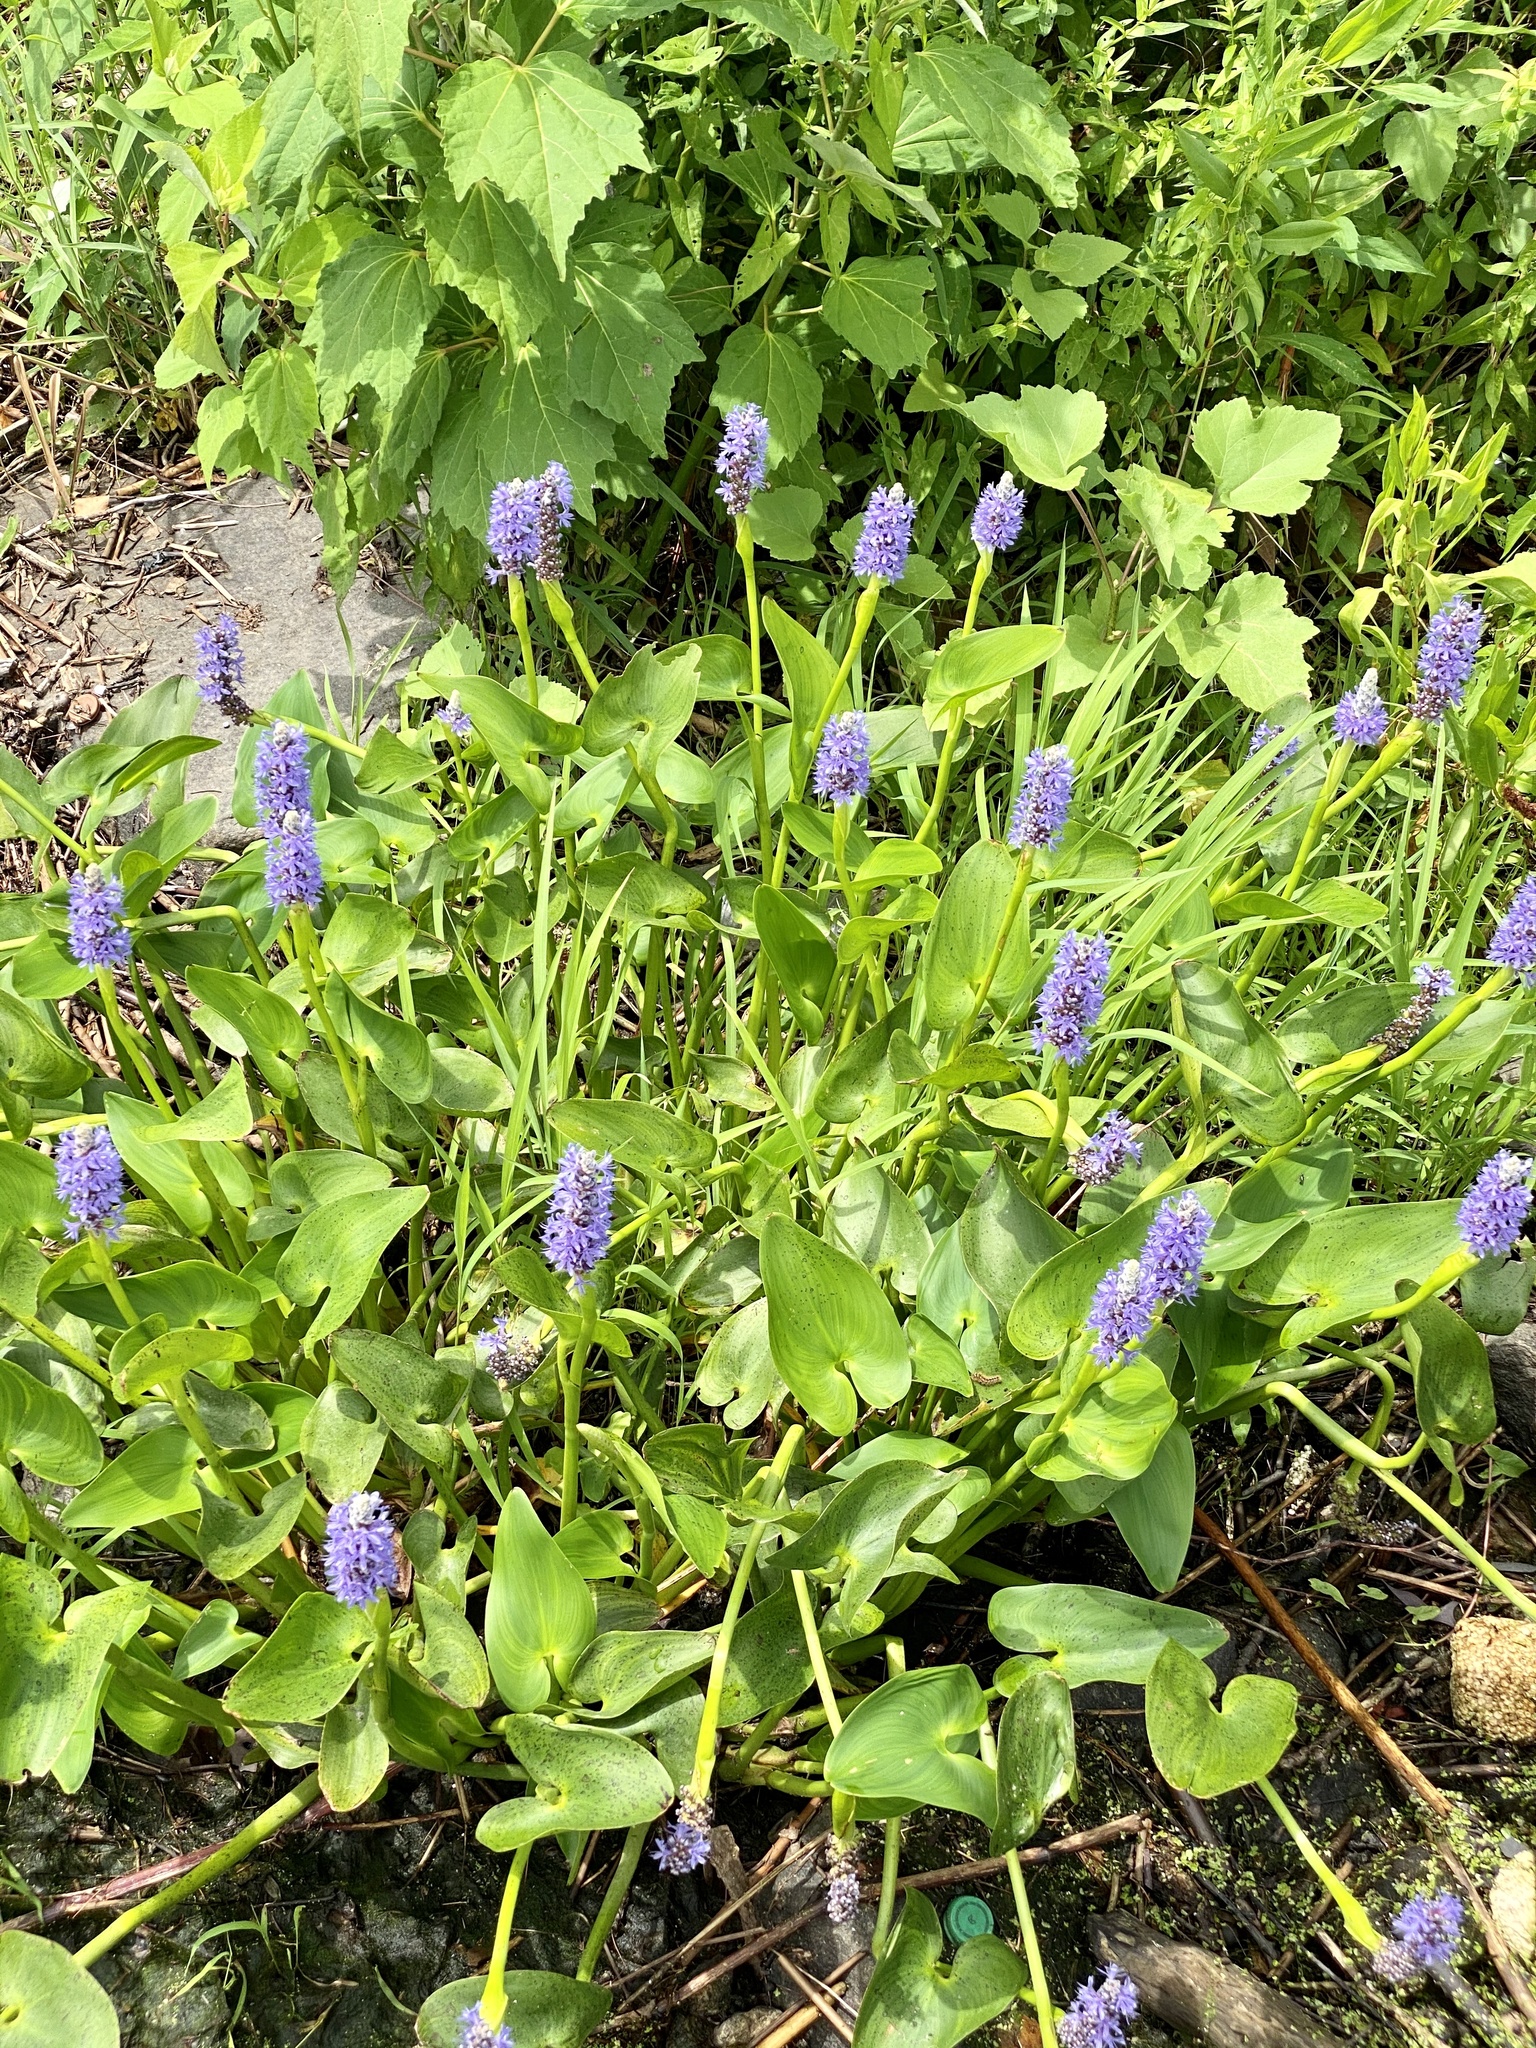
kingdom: Plantae
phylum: Tracheophyta
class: Liliopsida
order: Commelinales
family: Pontederiaceae
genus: Pontederia
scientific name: Pontederia cordata
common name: Pickerelweed
